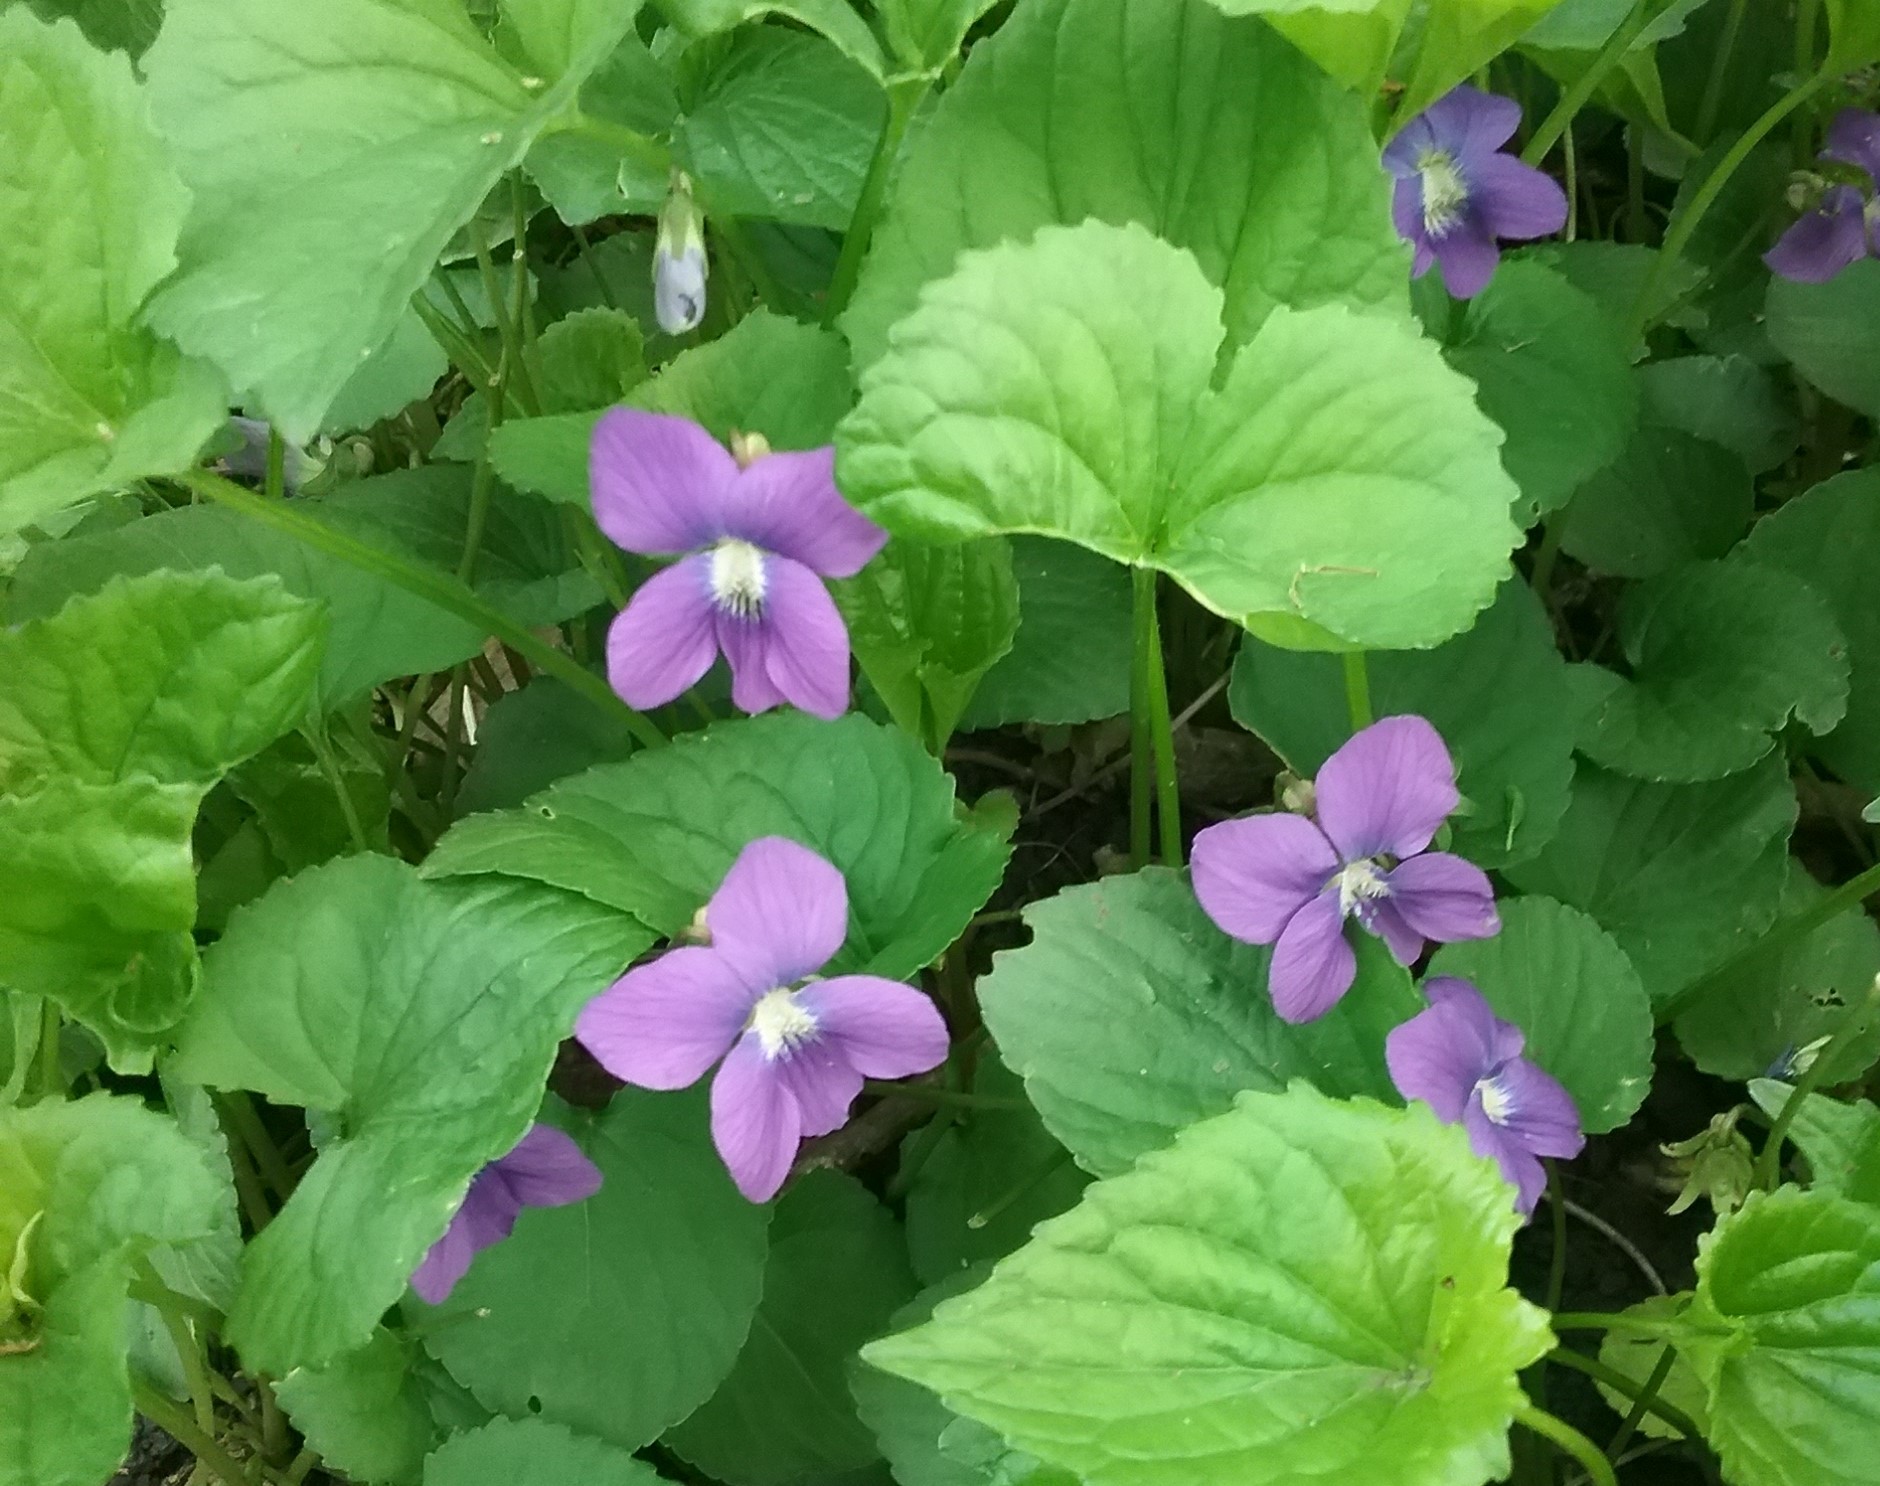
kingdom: Plantae
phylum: Tracheophyta
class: Magnoliopsida
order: Malpighiales
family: Violaceae
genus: Viola
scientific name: Viola sororia
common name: Dooryard violet
